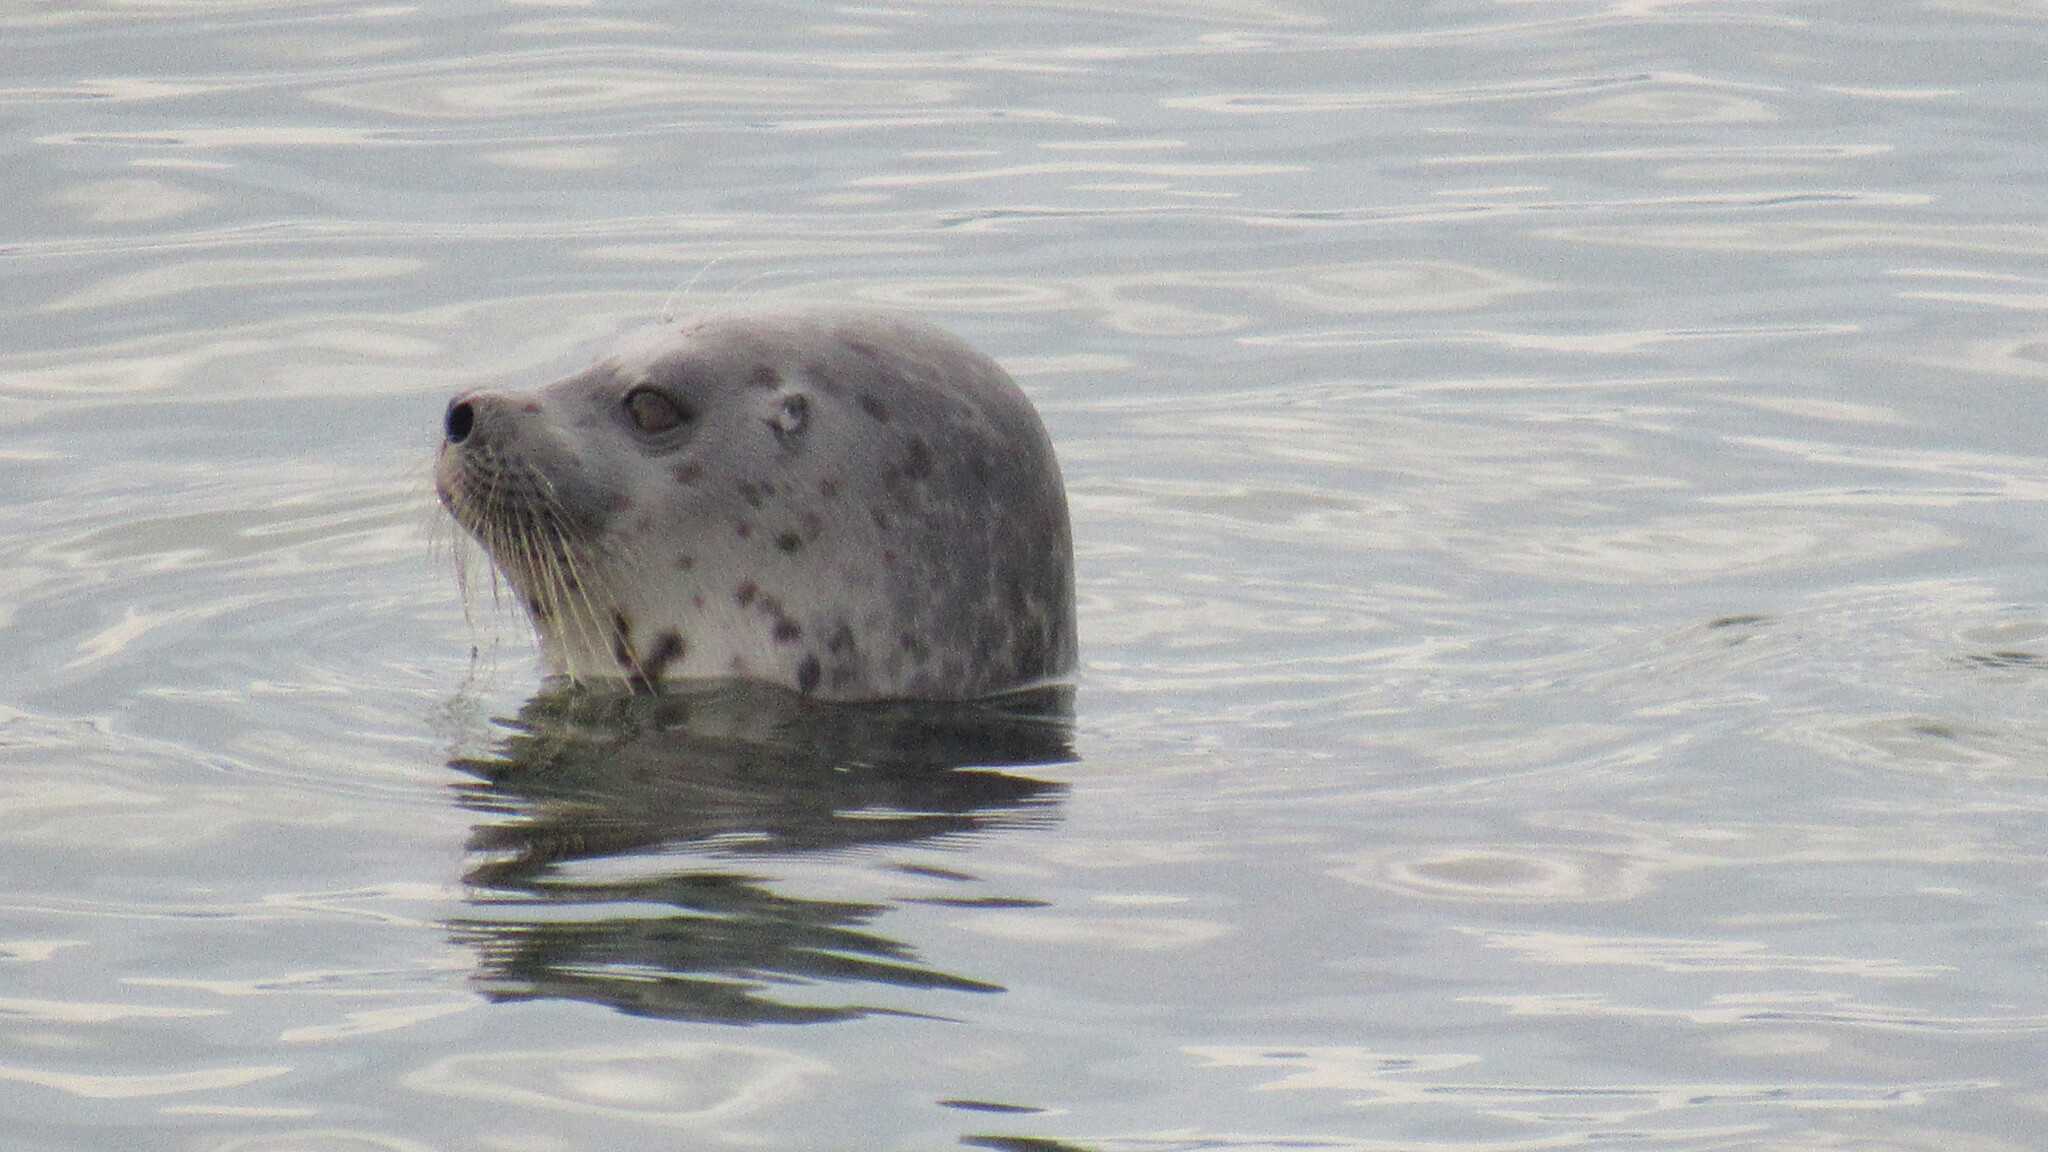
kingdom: Animalia
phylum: Chordata
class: Mammalia
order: Carnivora
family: Phocidae
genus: Pusa
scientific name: Pusa hispida
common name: Ringed seal
